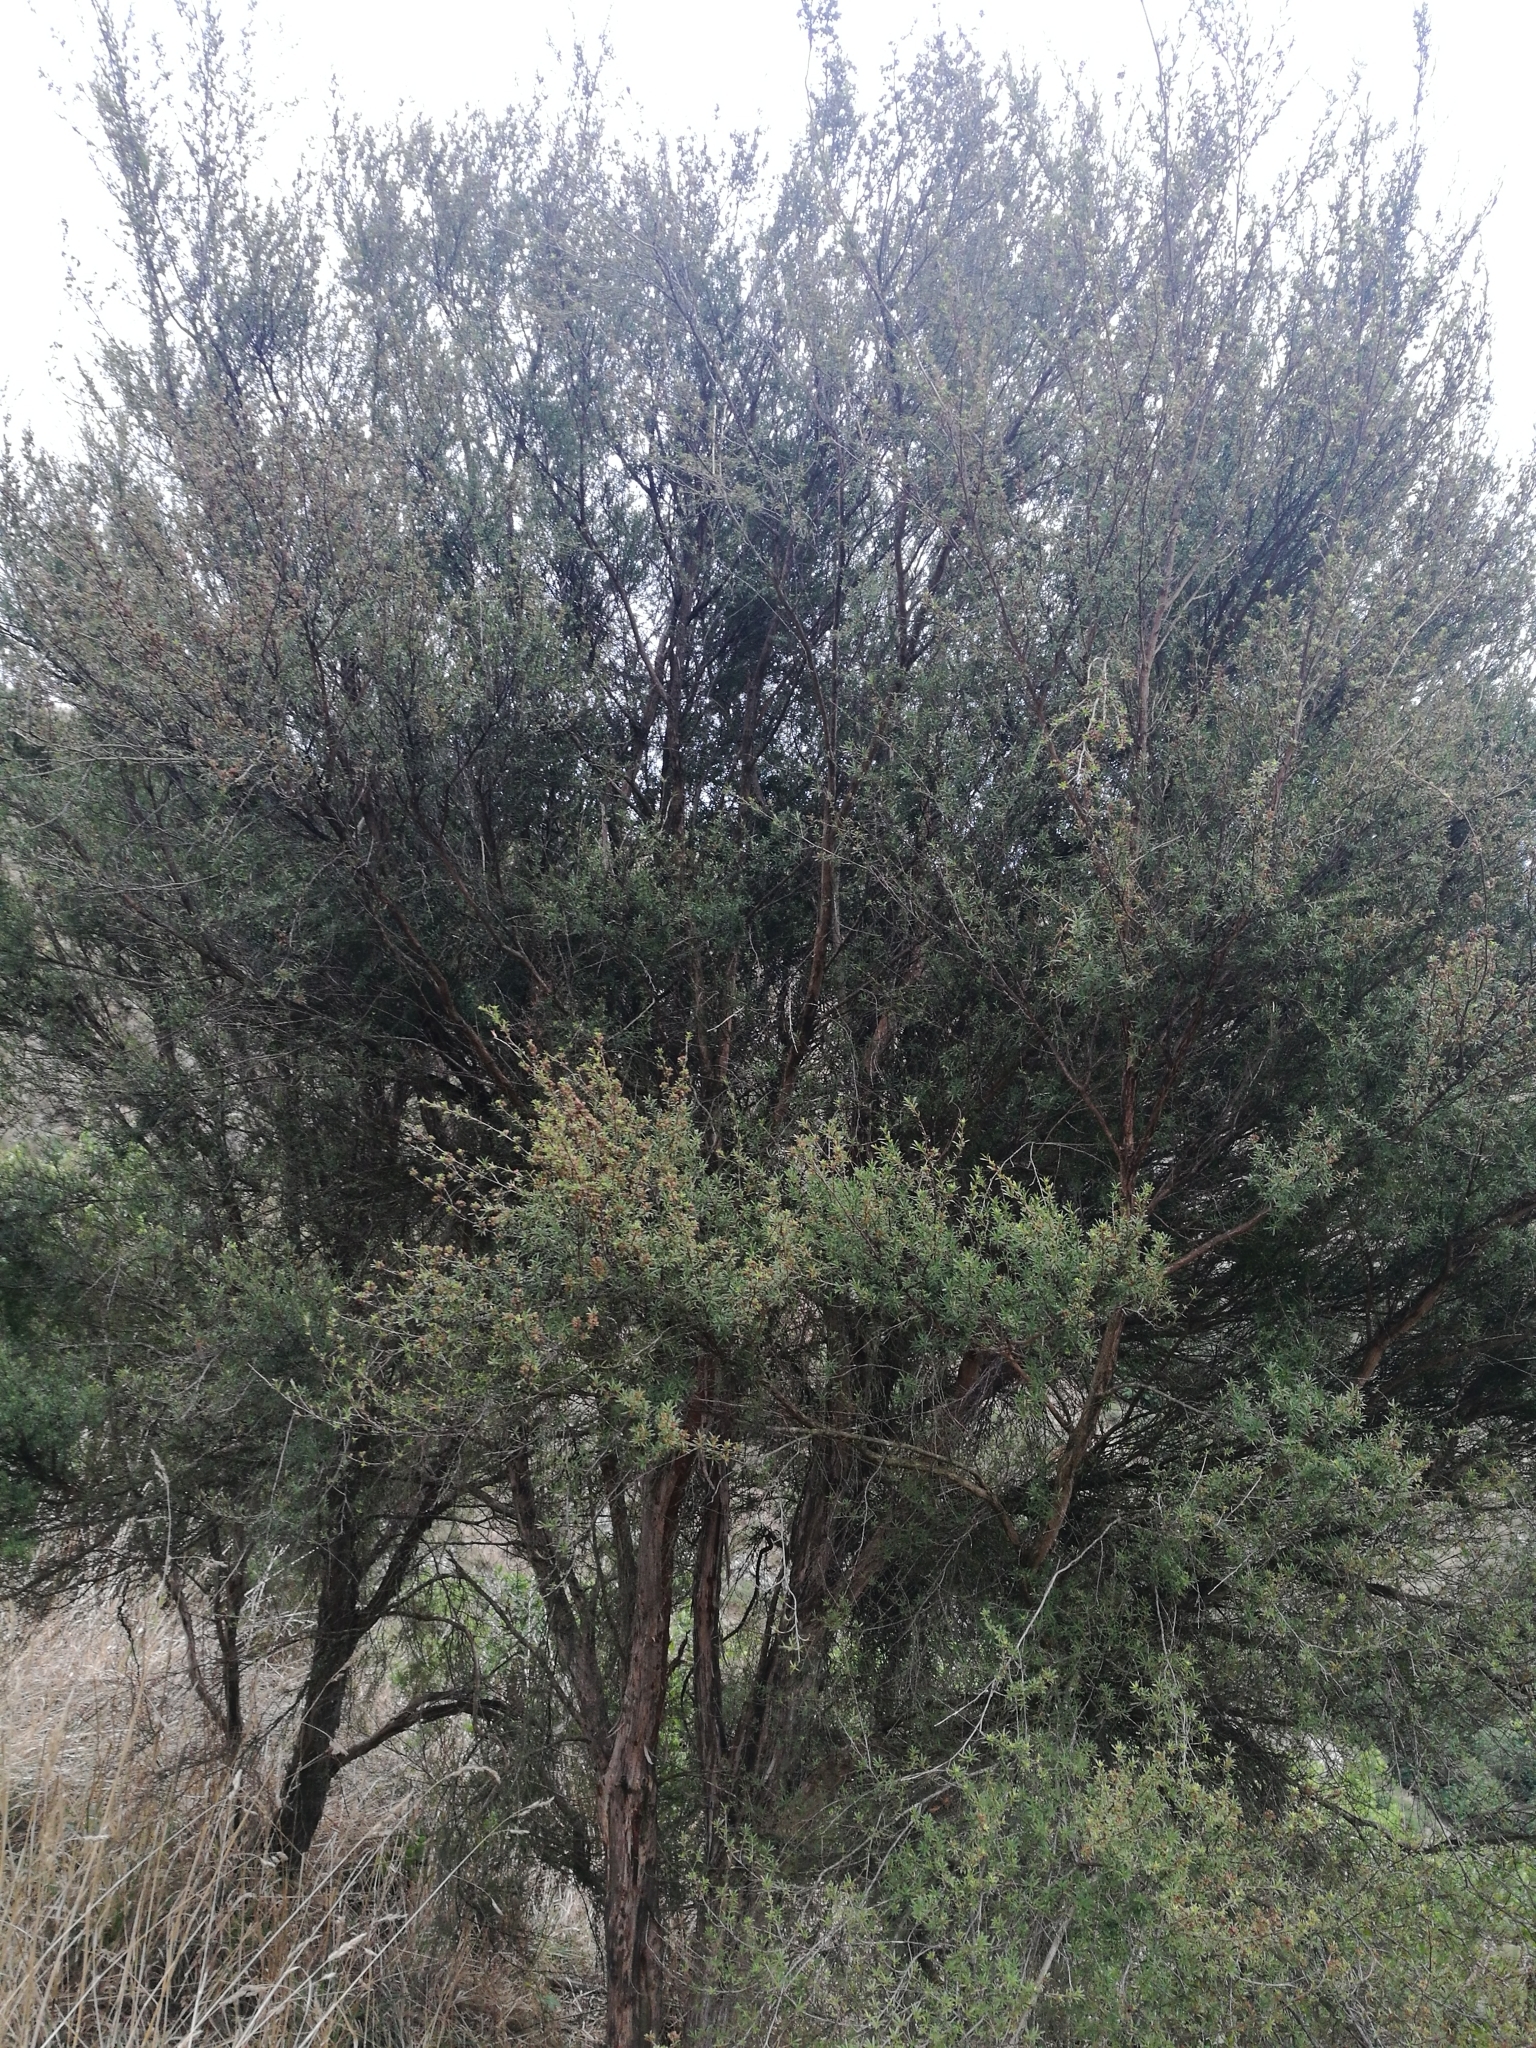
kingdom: Plantae
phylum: Tracheophyta
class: Magnoliopsida
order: Myrtales
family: Myrtaceae
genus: Kunzea
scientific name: Kunzea robusta
